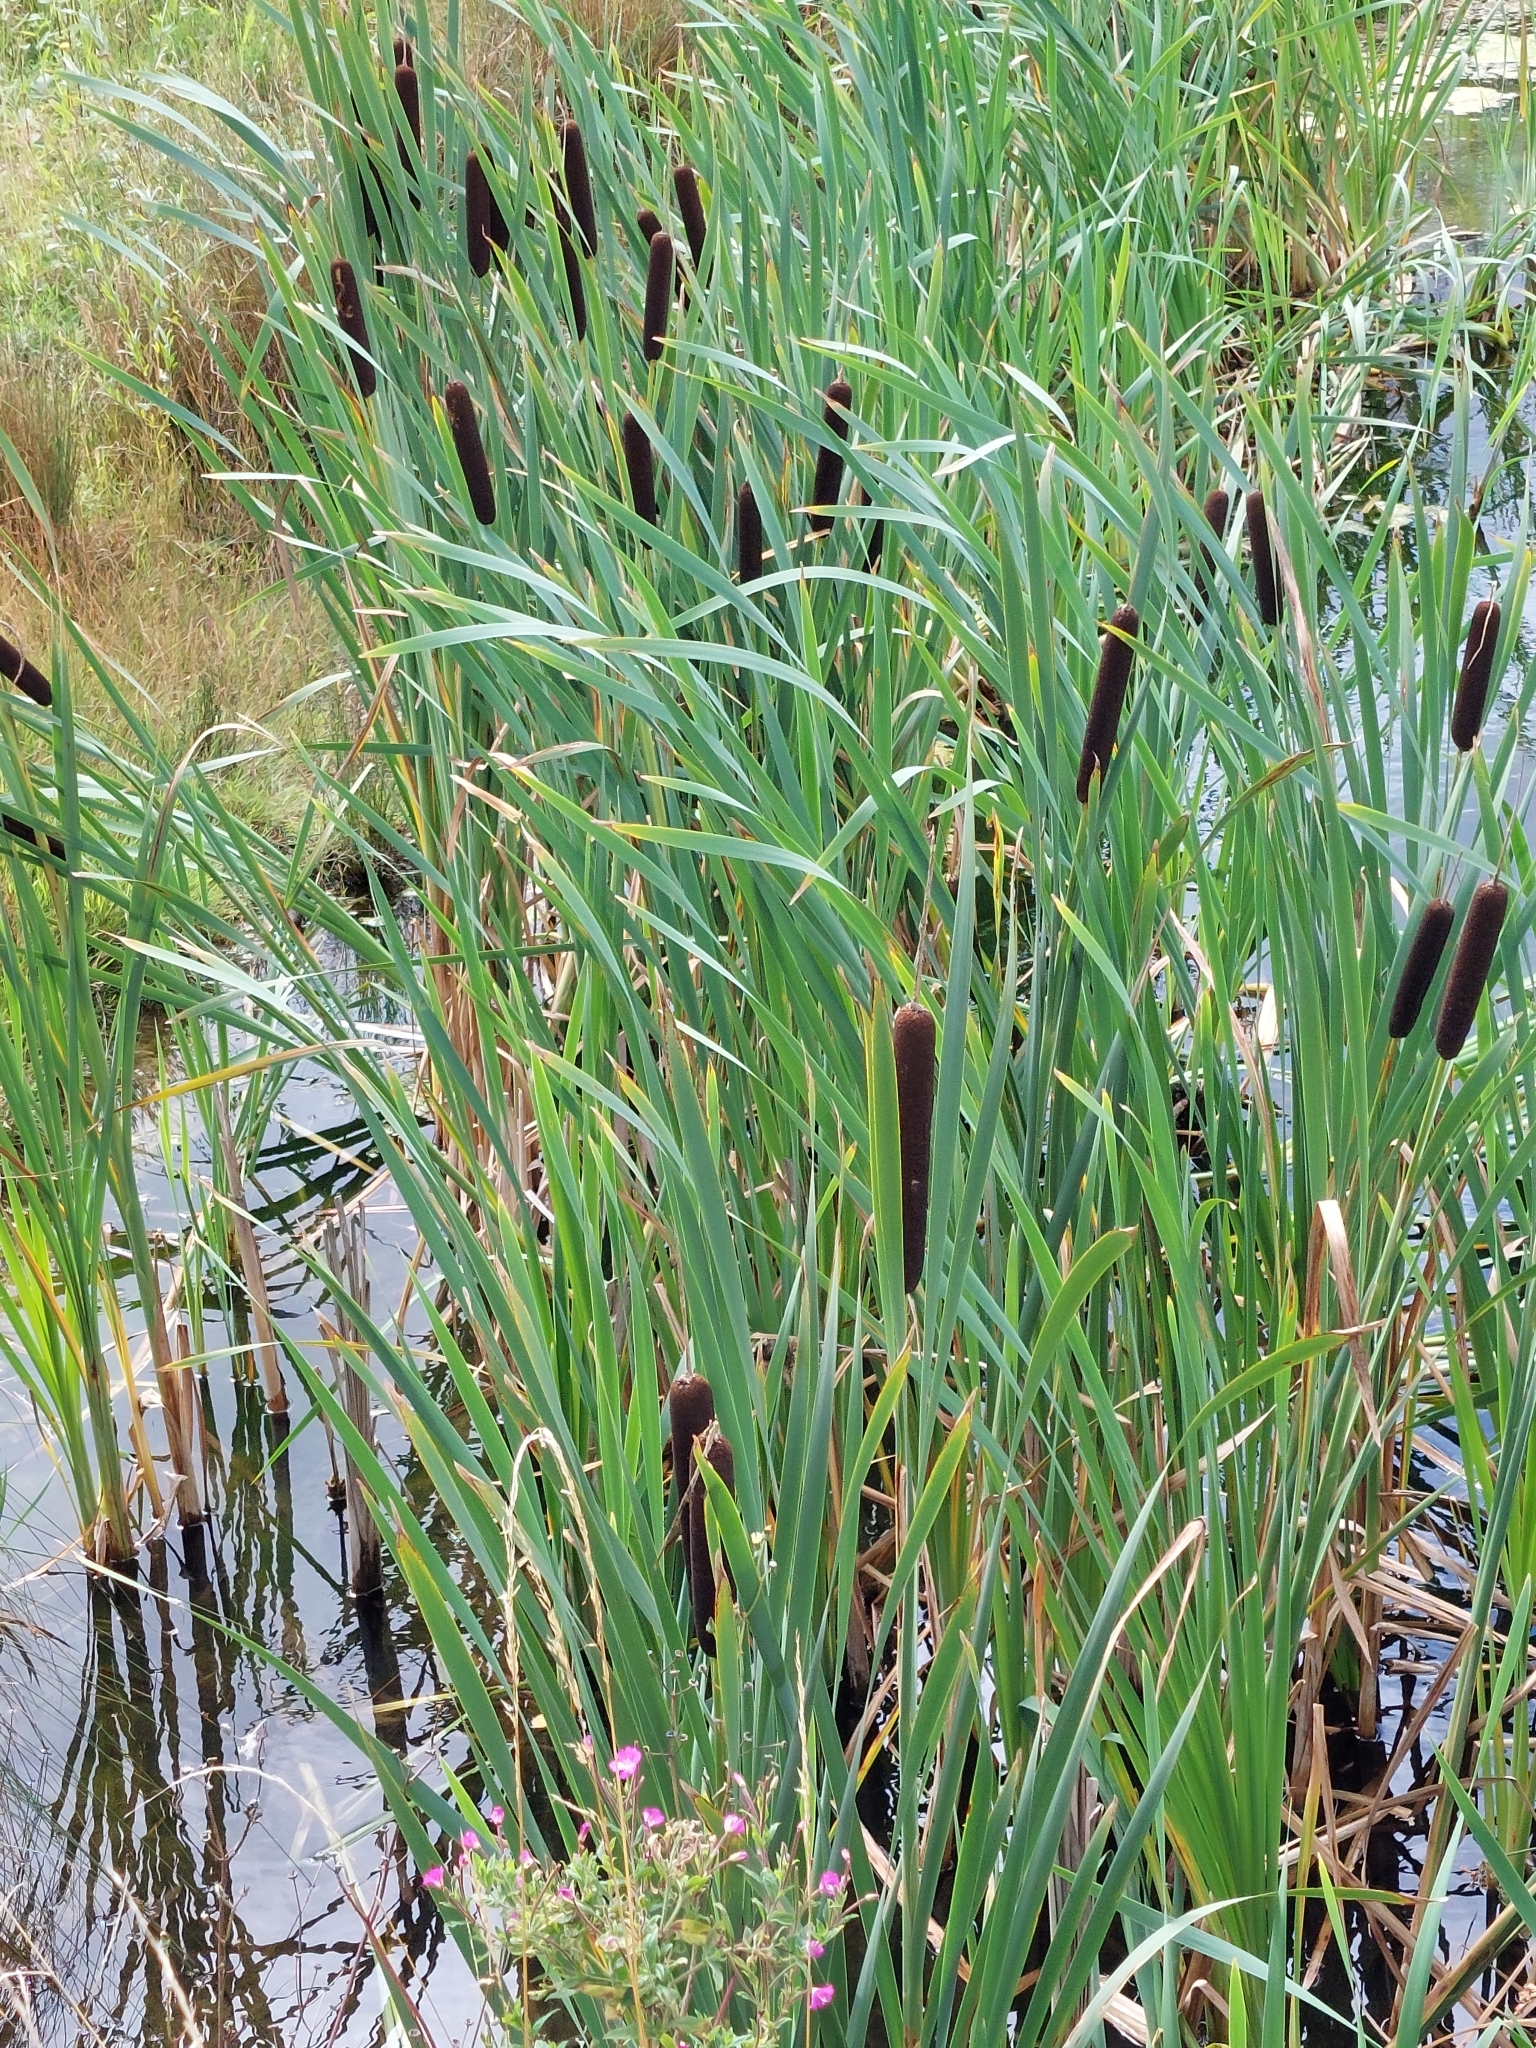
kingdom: Plantae
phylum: Tracheophyta
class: Liliopsida
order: Poales
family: Typhaceae
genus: Typha
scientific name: Typha latifolia
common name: Broadleaf cattail
